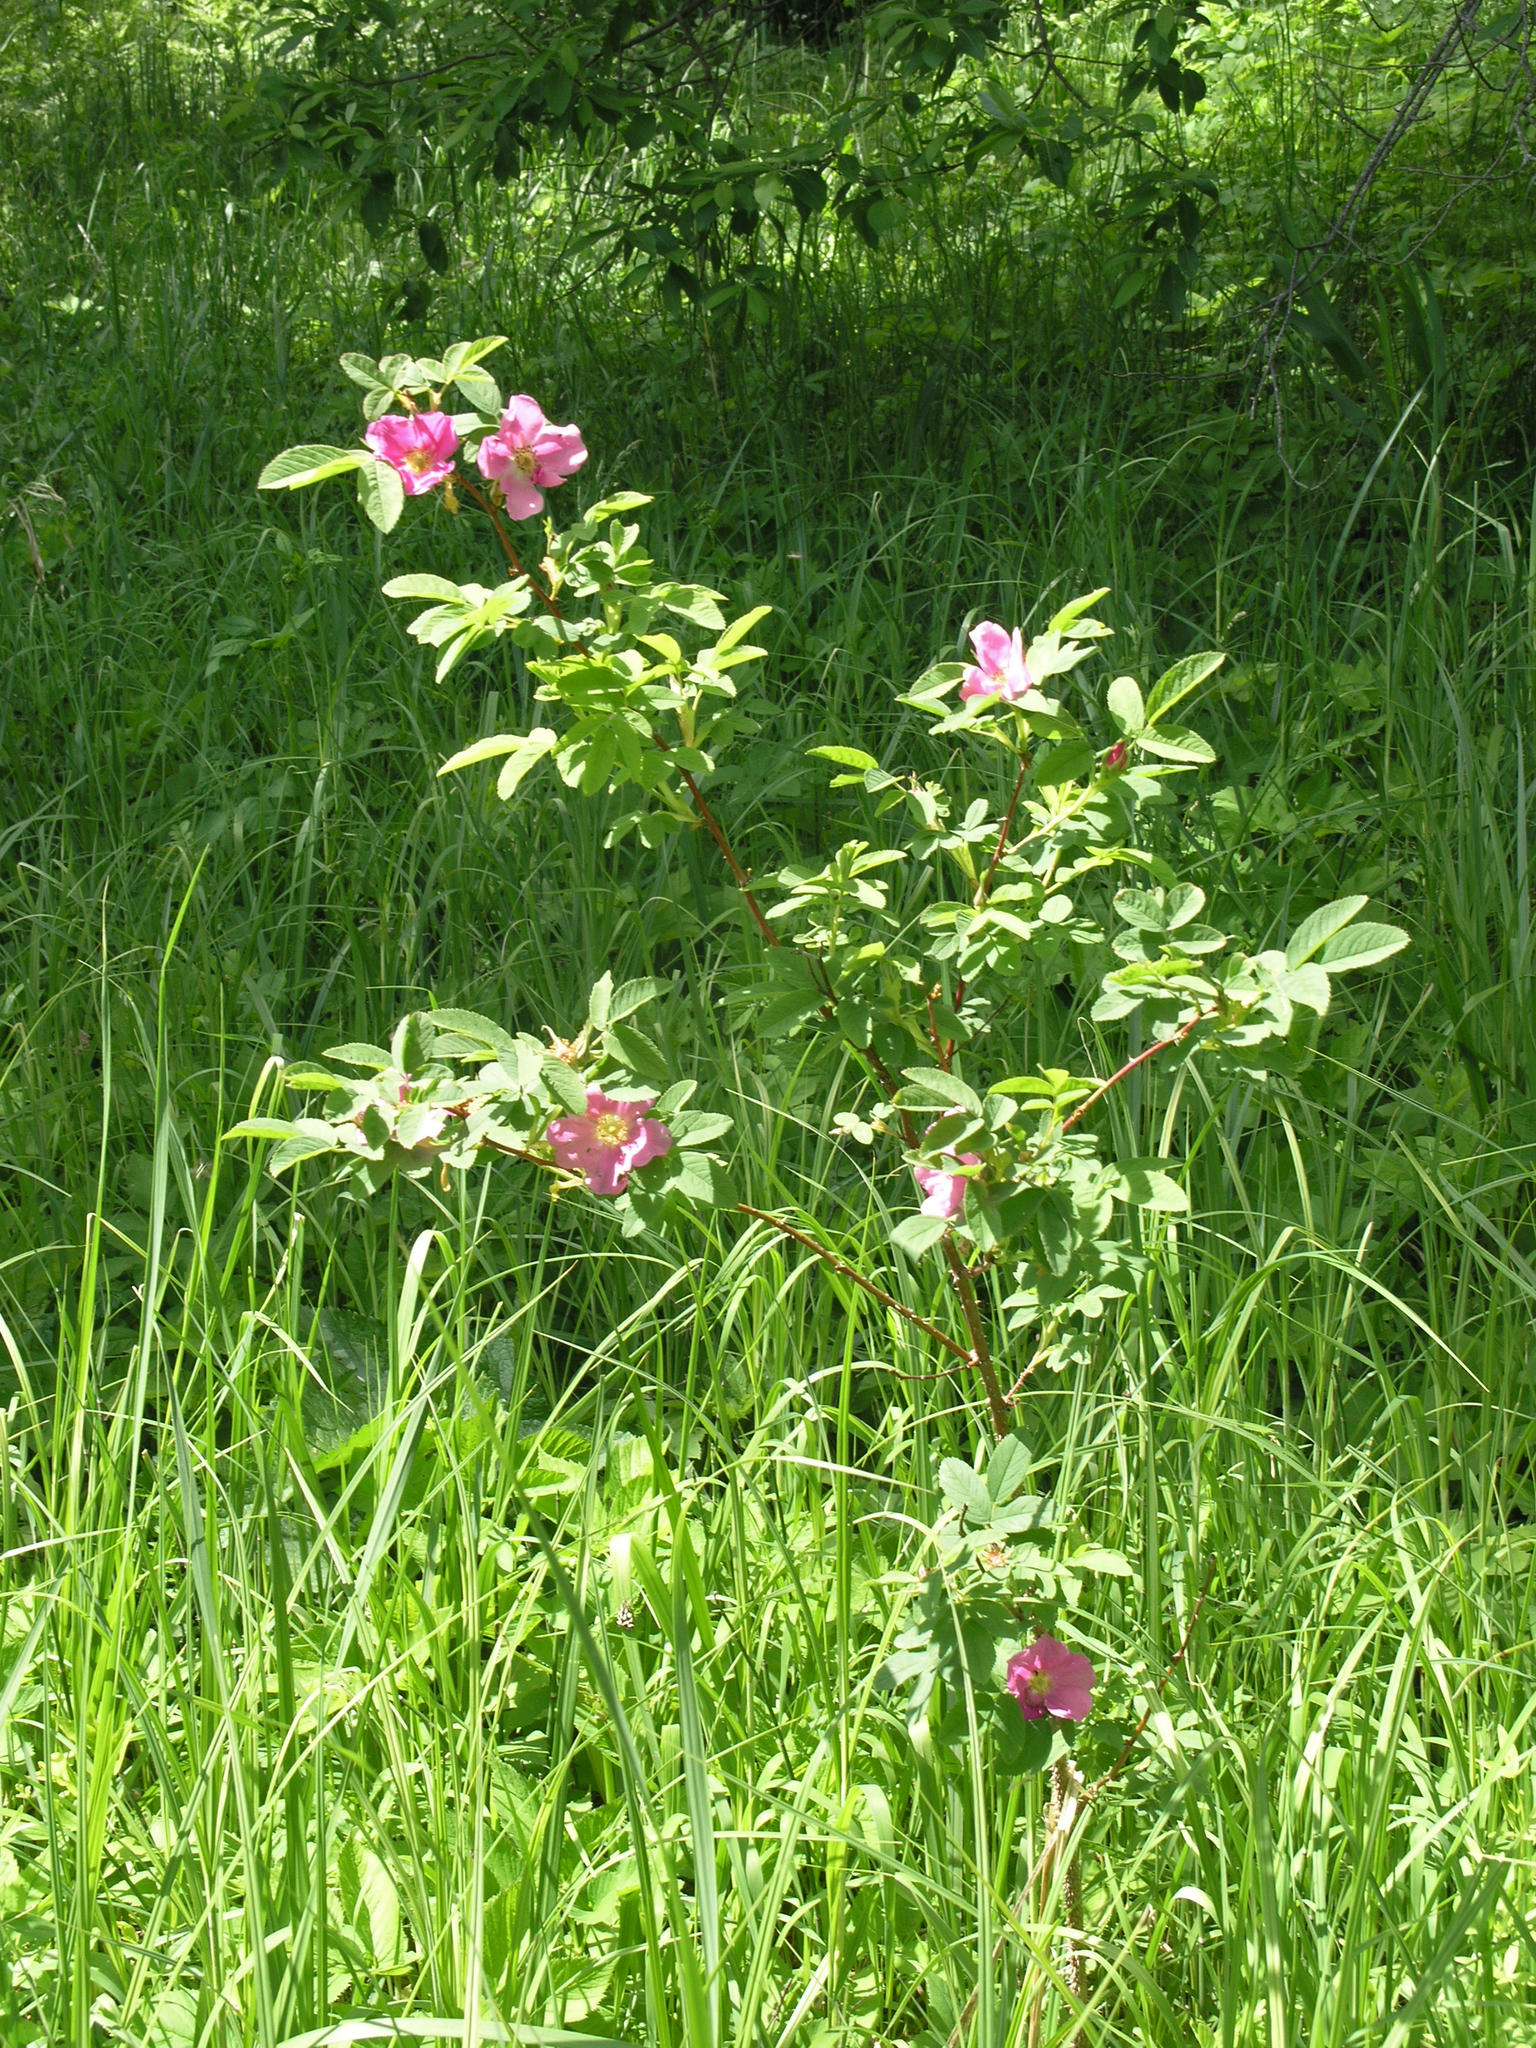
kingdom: Plantae
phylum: Tracheophyta
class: Magnoliopsida
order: Rosales
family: Rosaceae
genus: Rosa
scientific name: Rosa majalis
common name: Cinnamon rose
